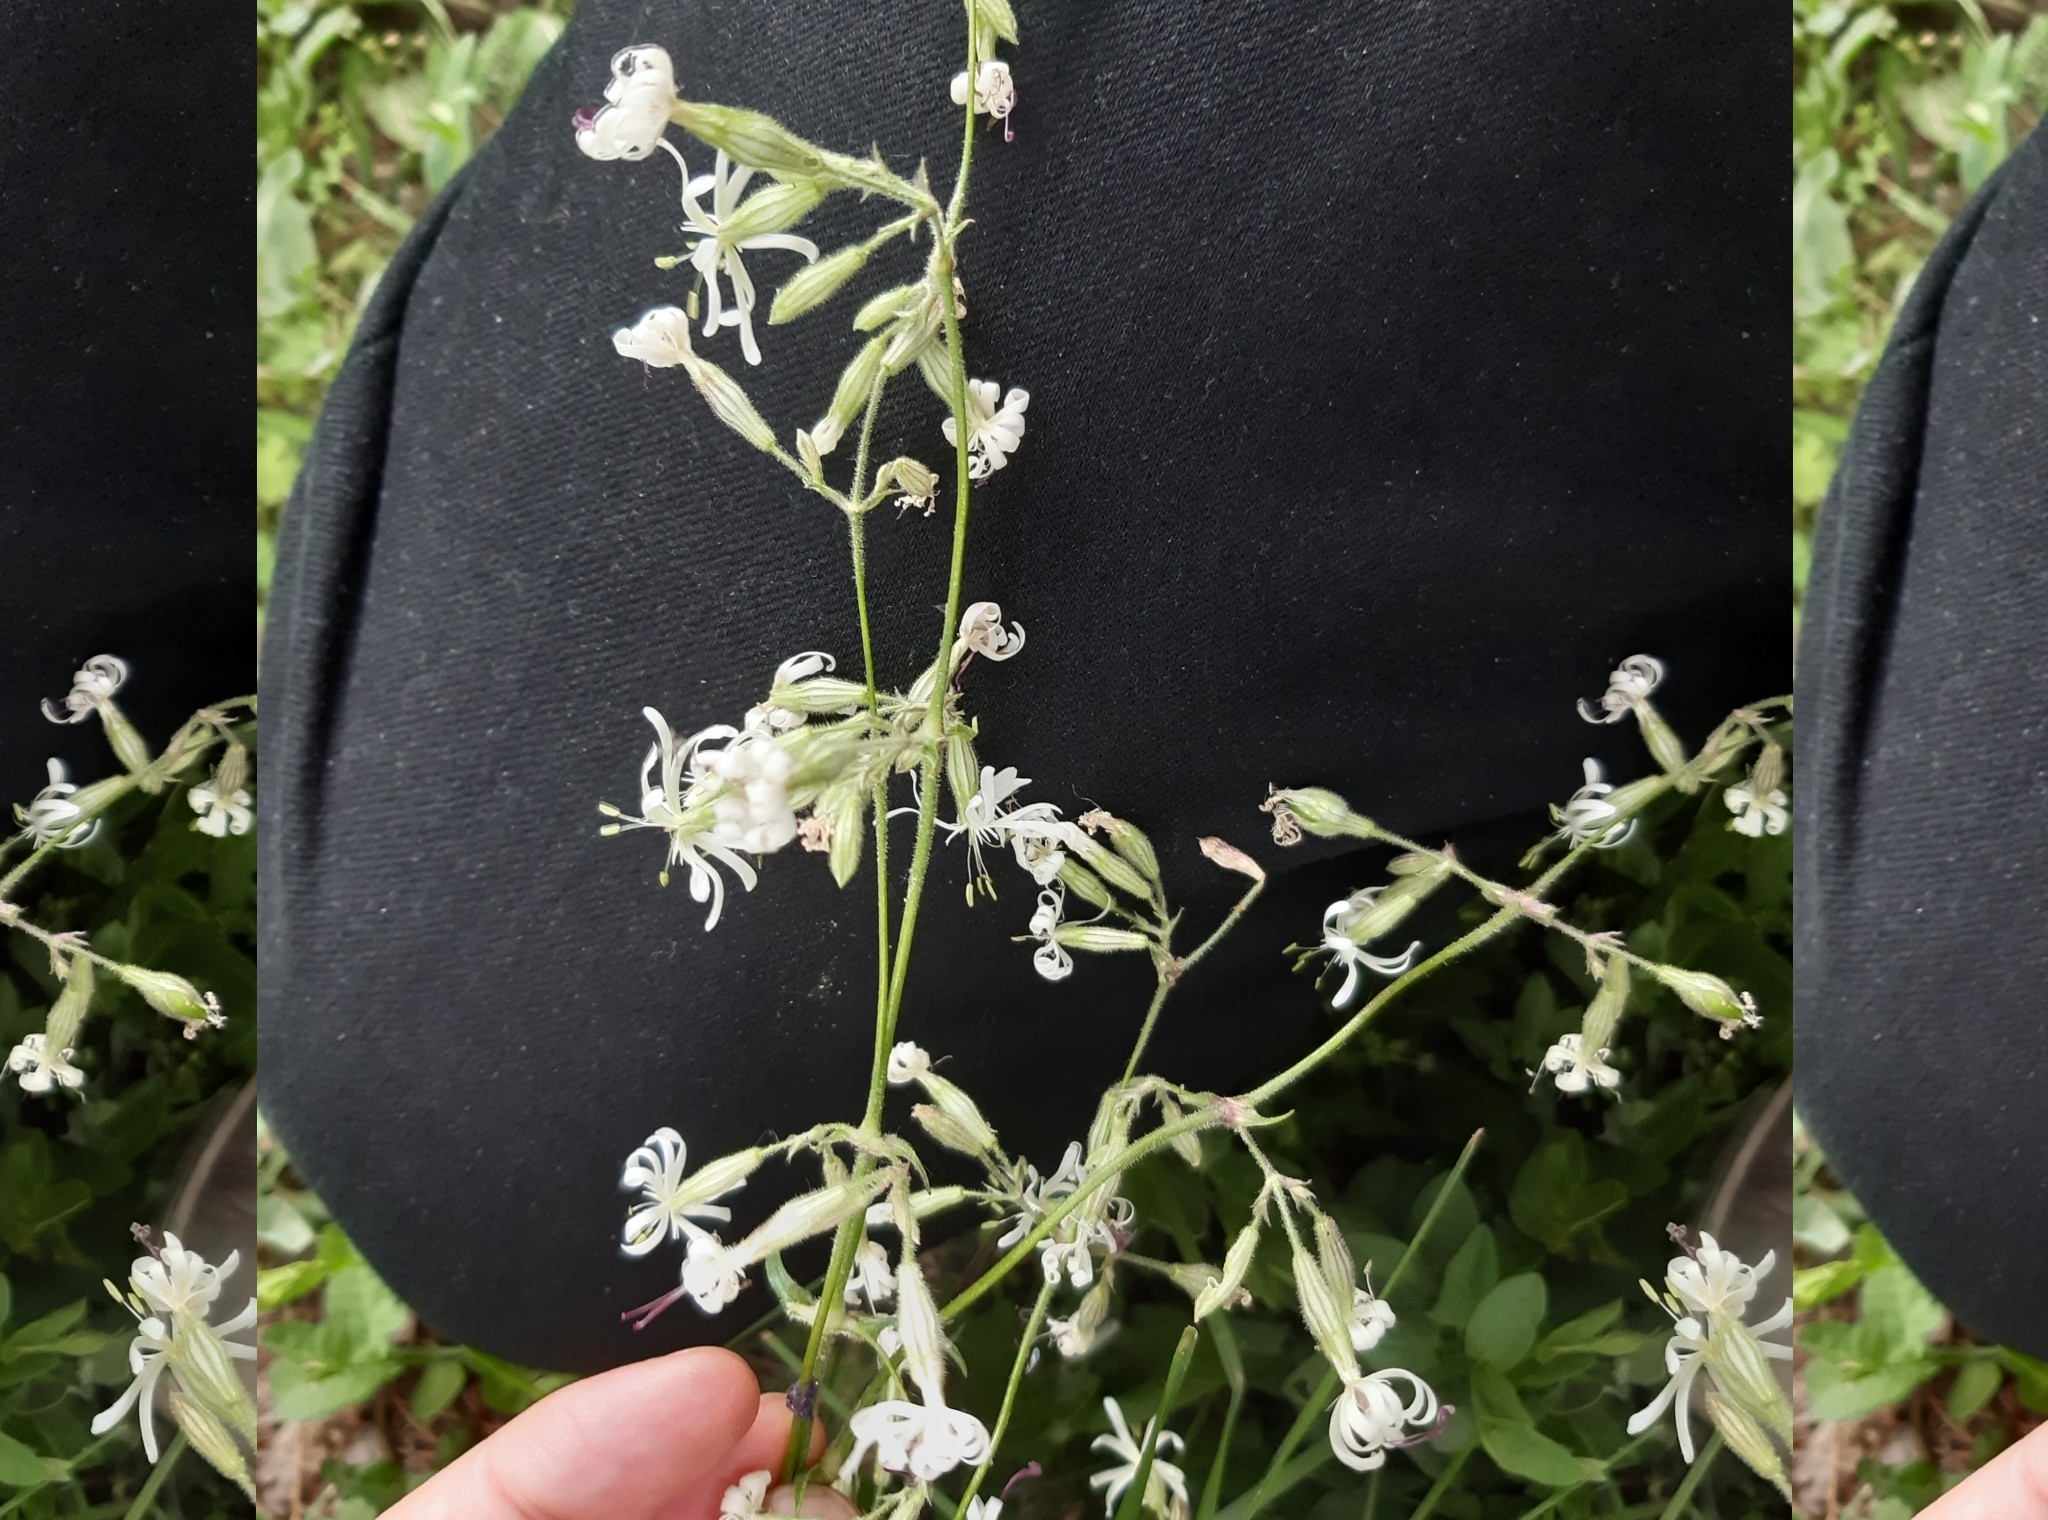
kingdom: Plantae
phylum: Tracheophyta
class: Magnoliopsida
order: Caryophyllales
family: Caryophyllaceae
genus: Silene
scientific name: Silene nutans
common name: Nottingham catchfly
